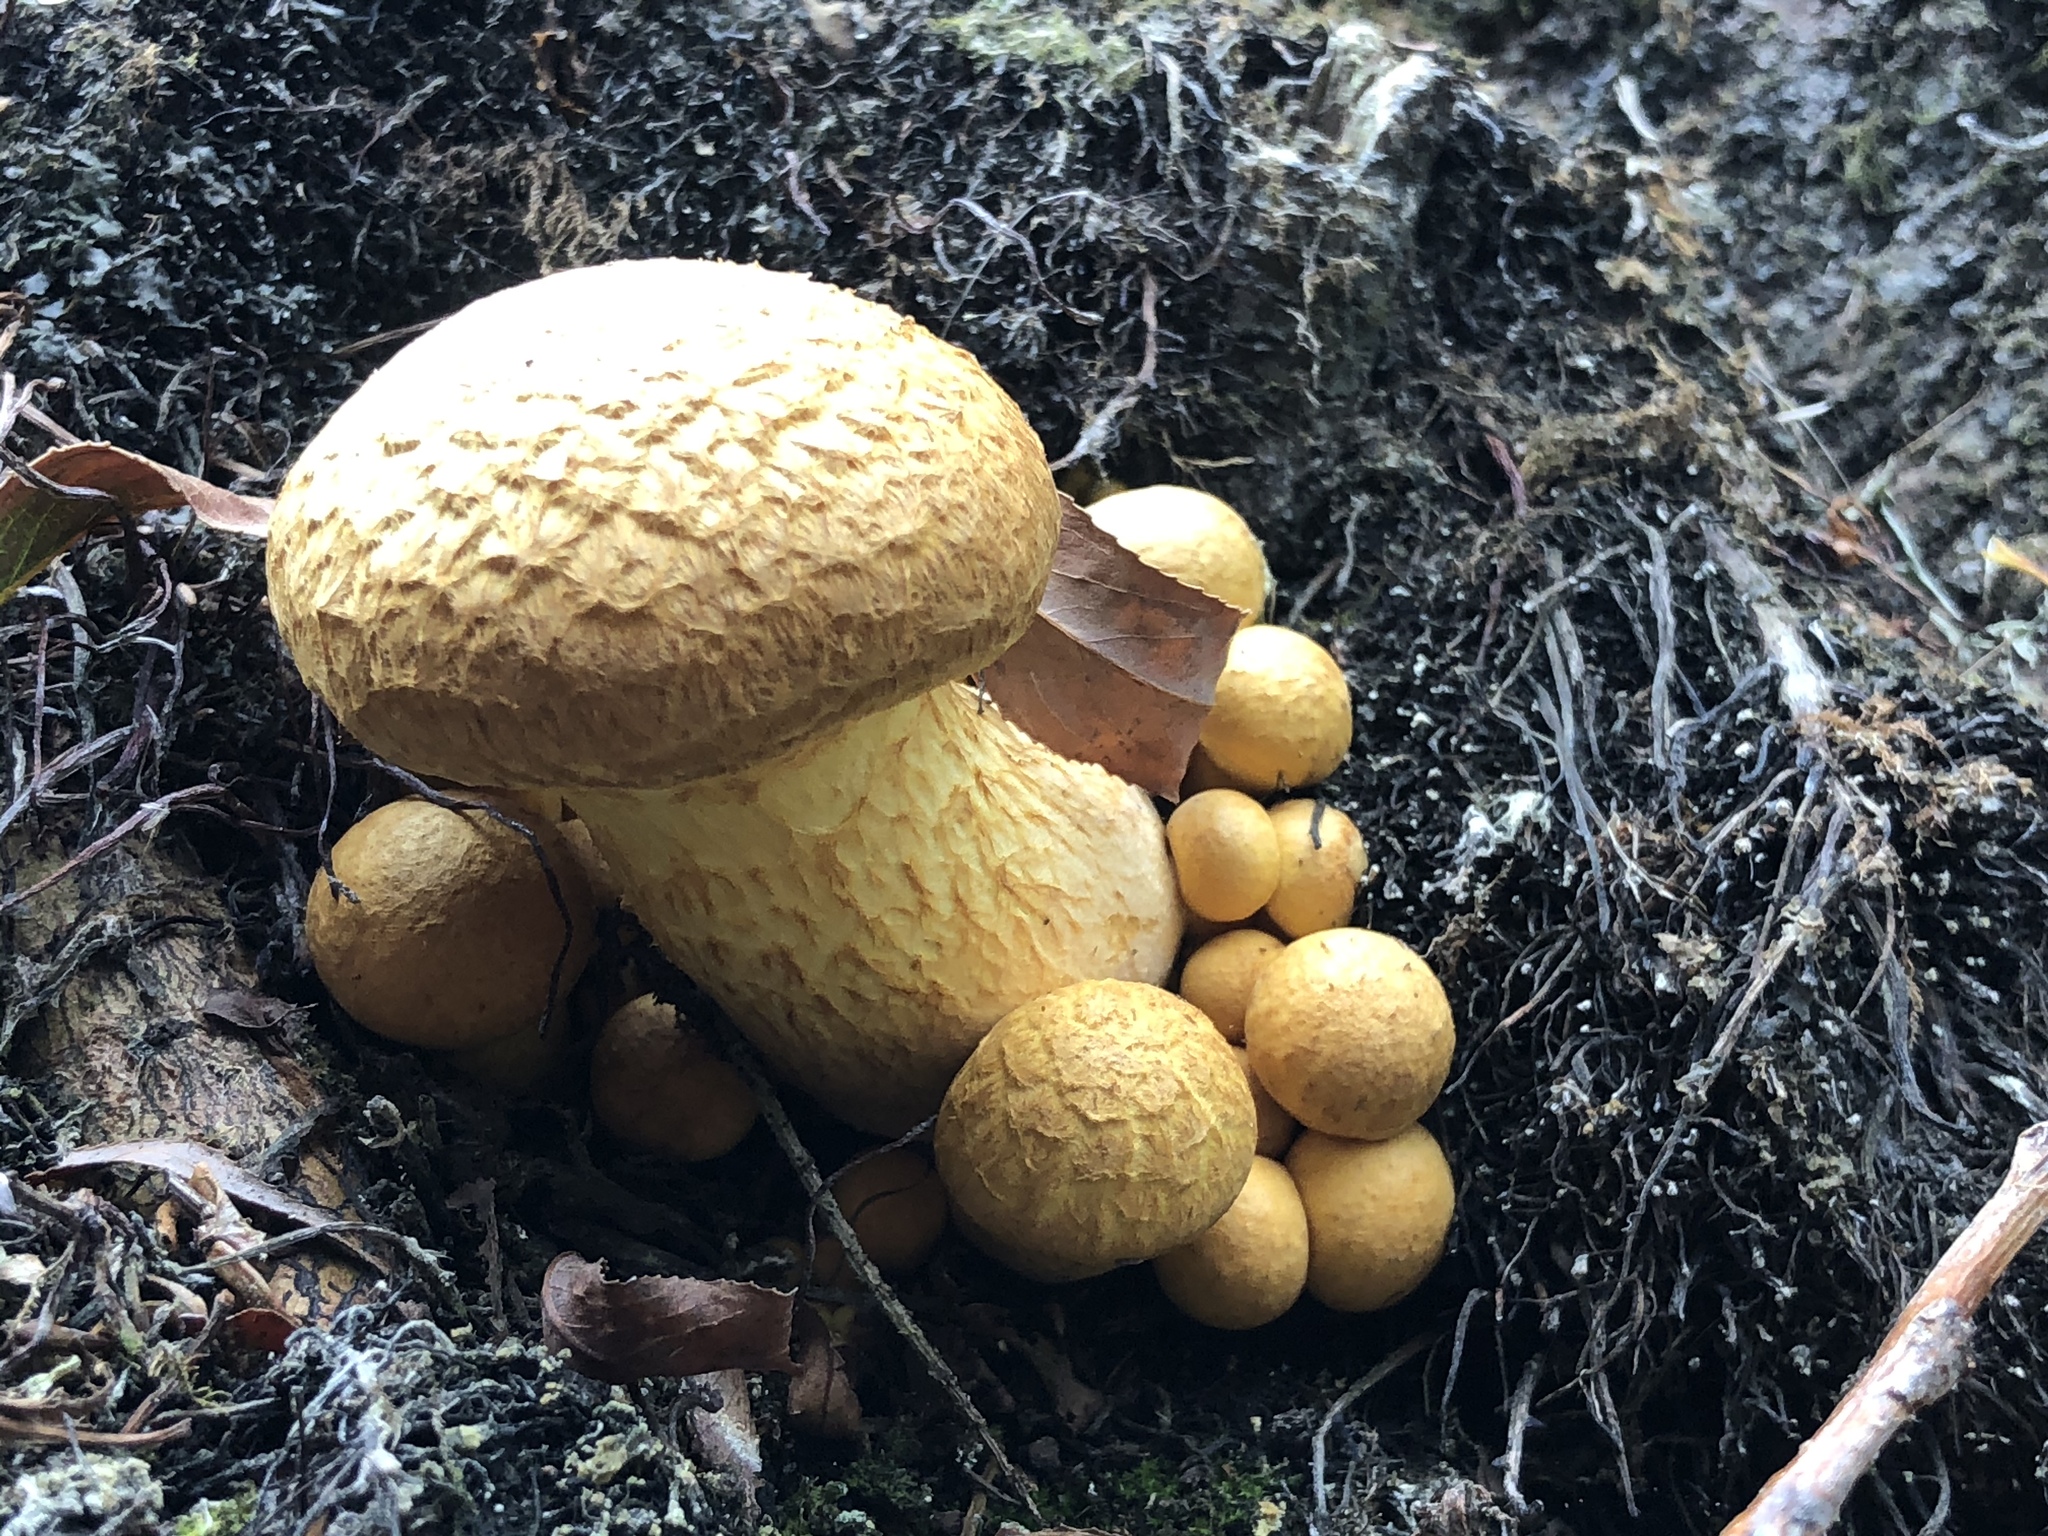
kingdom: Fungi
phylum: Basidiomycota
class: Agaricomycetes
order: Agaricales
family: Hymenogastraceae
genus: Gymnopilus
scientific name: Gymnopilus junonius
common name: Spectacular rustgill
